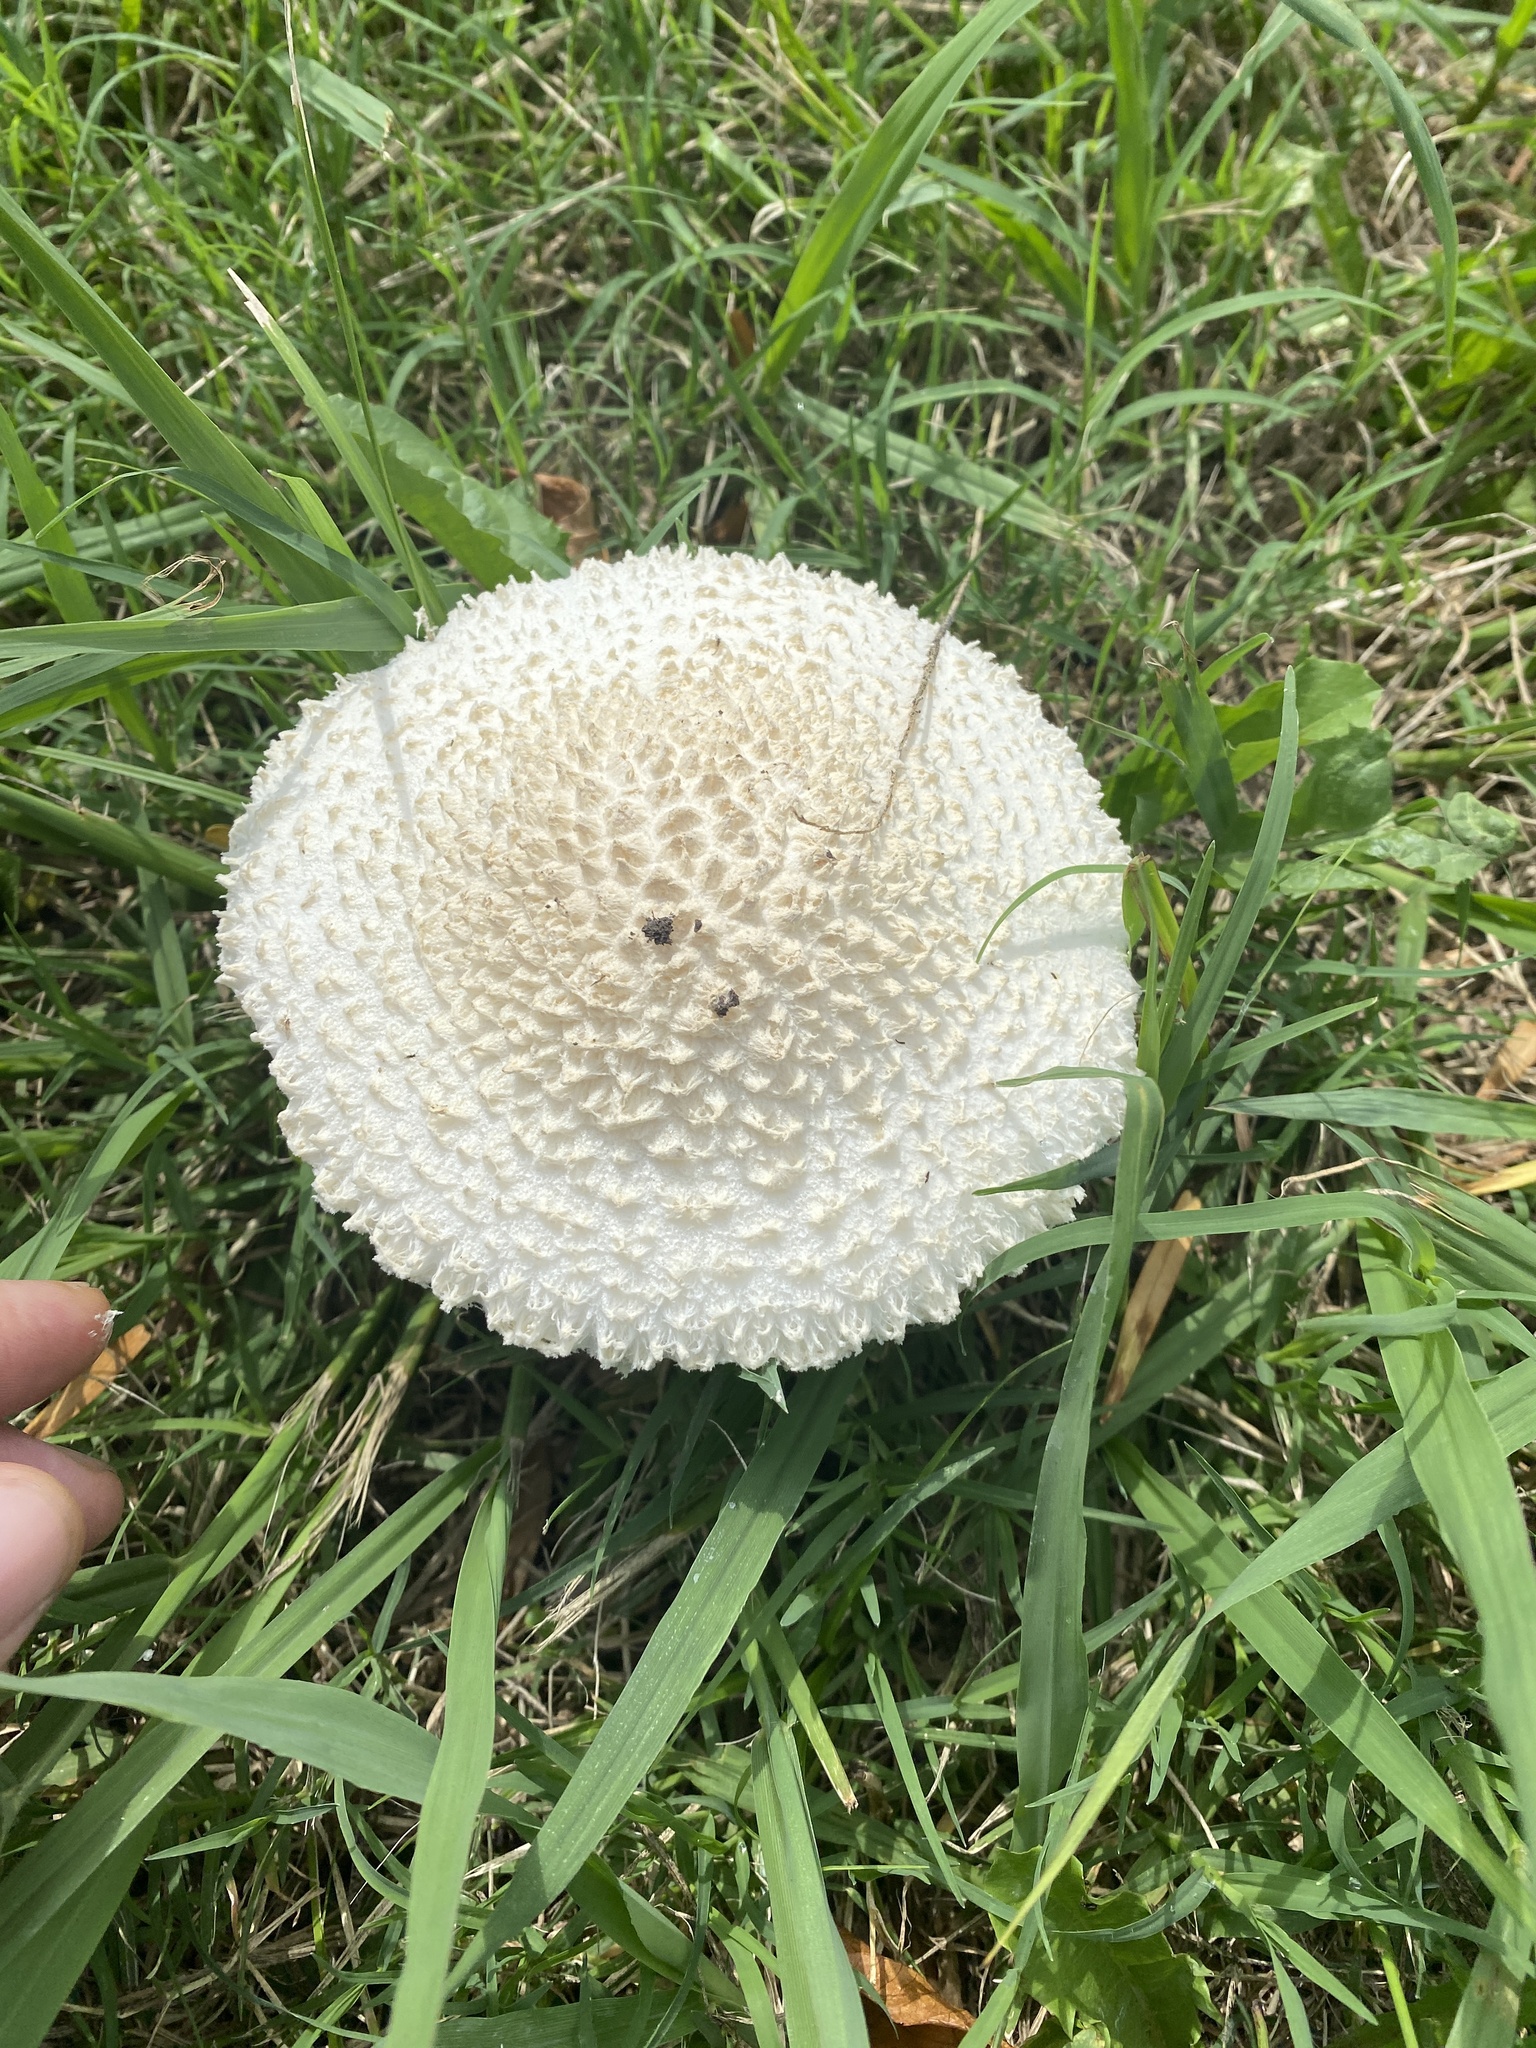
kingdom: Fungi
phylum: Basidiomycota
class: Agaricomycetes
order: Agaricales
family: Amanitaceae
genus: Aspidella
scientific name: Aspidella foetens
